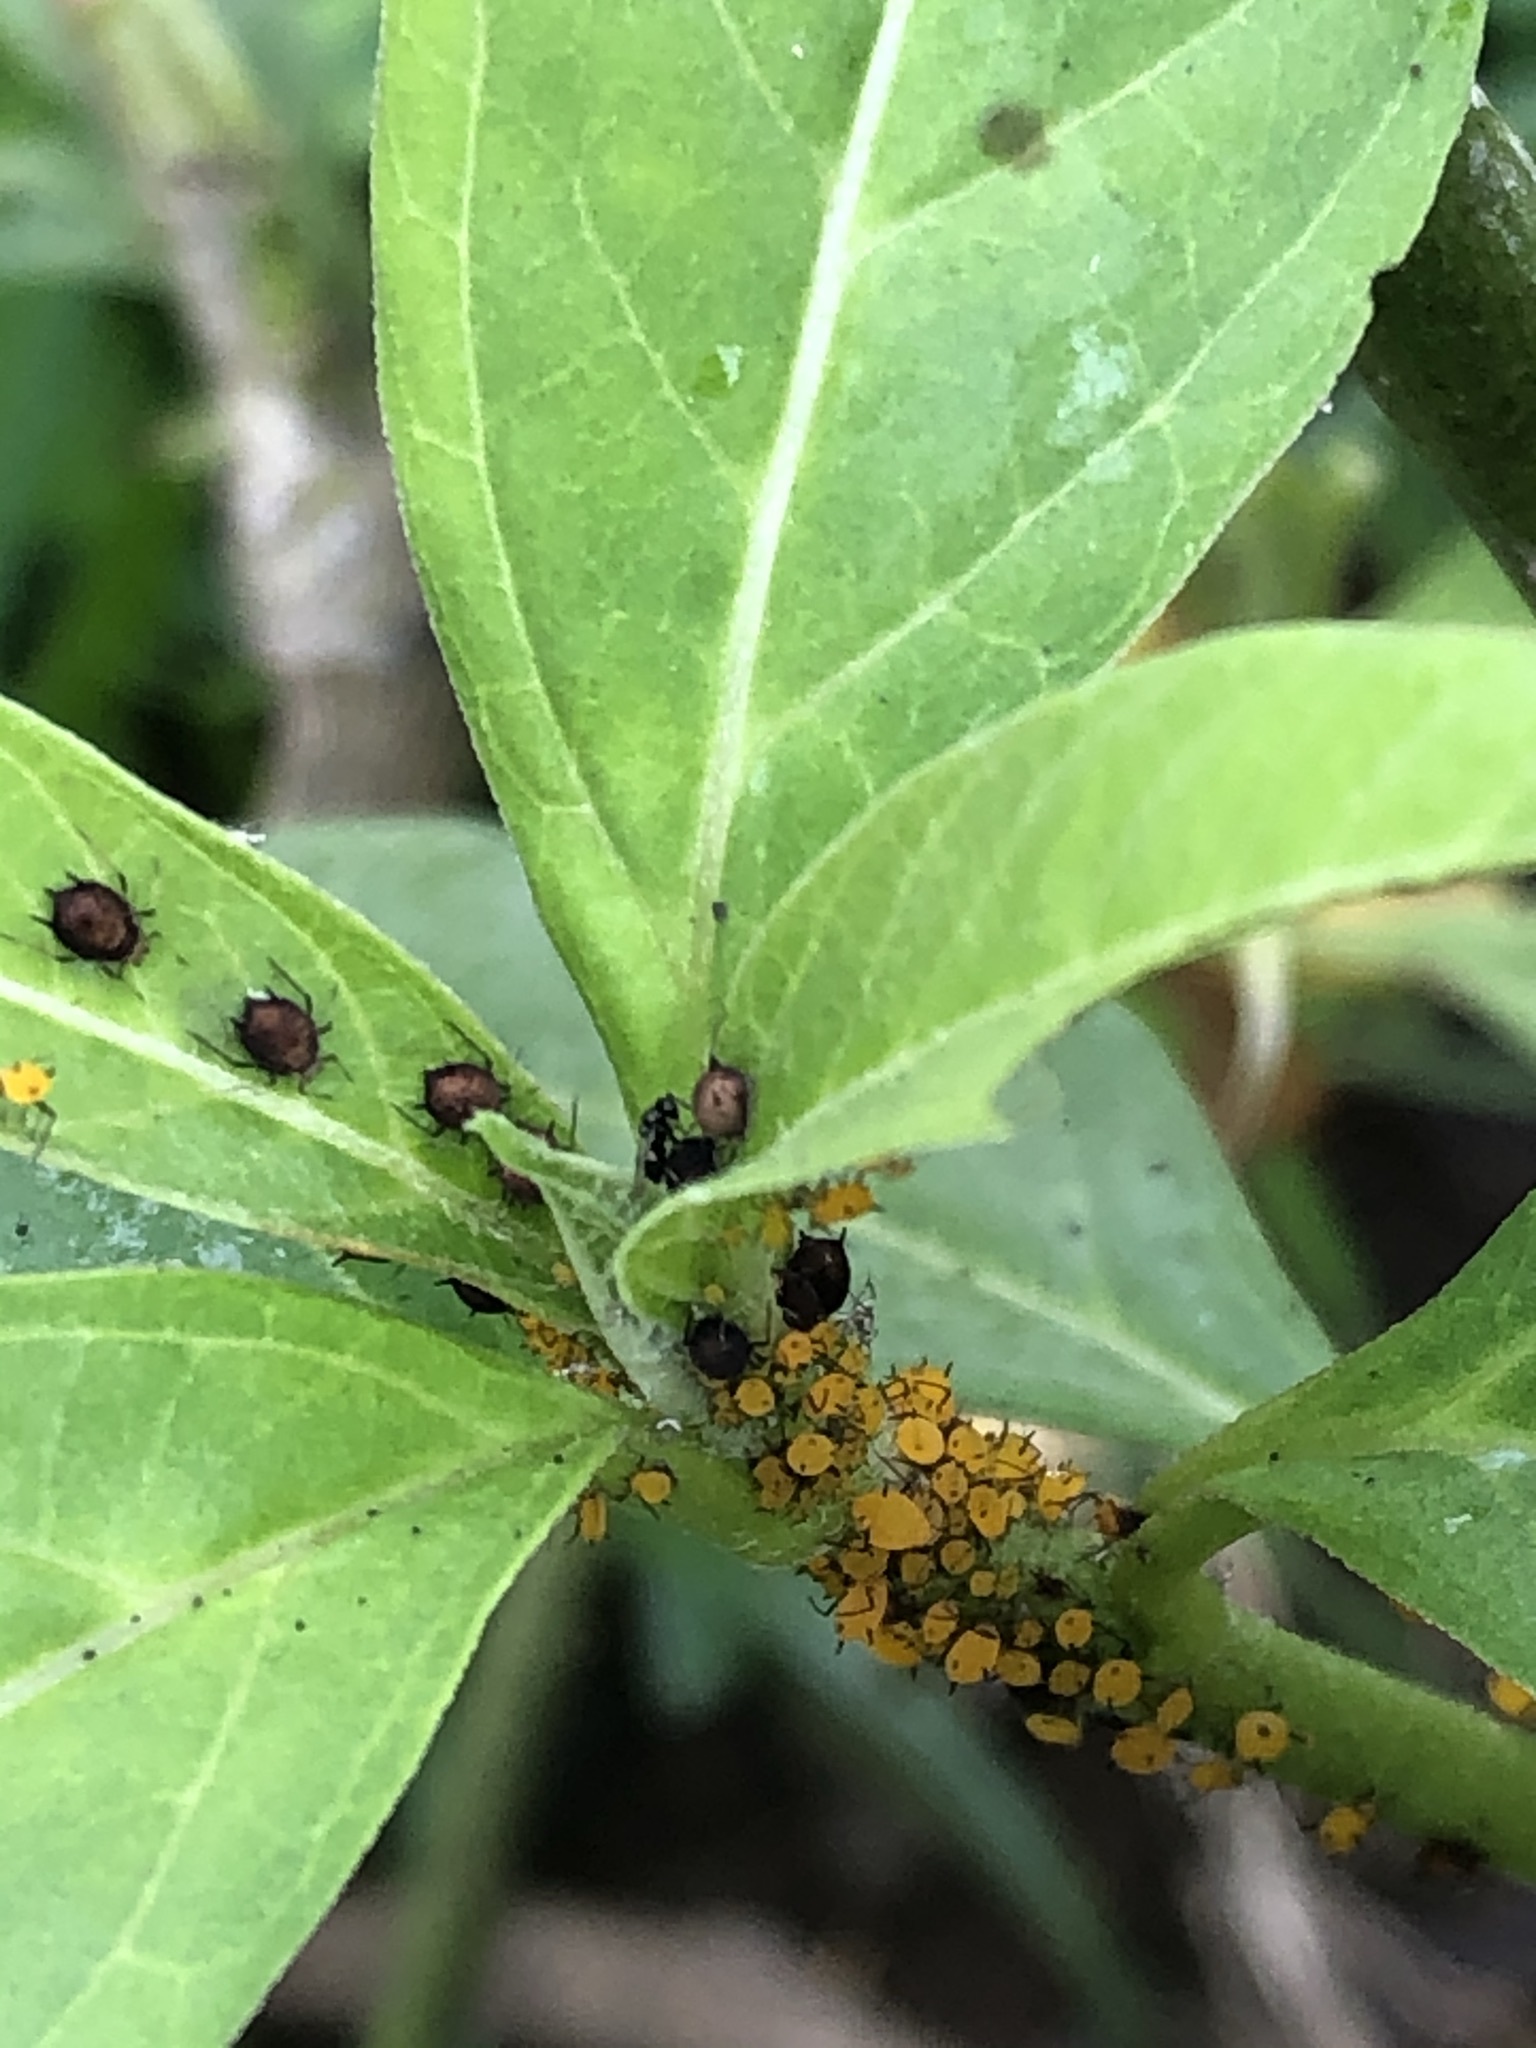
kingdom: Animalia
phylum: Arthropoda
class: Insecta
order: Hemiptera
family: Aphididae
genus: Aphis
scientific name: Aphis nerii
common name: Oleander aphid
